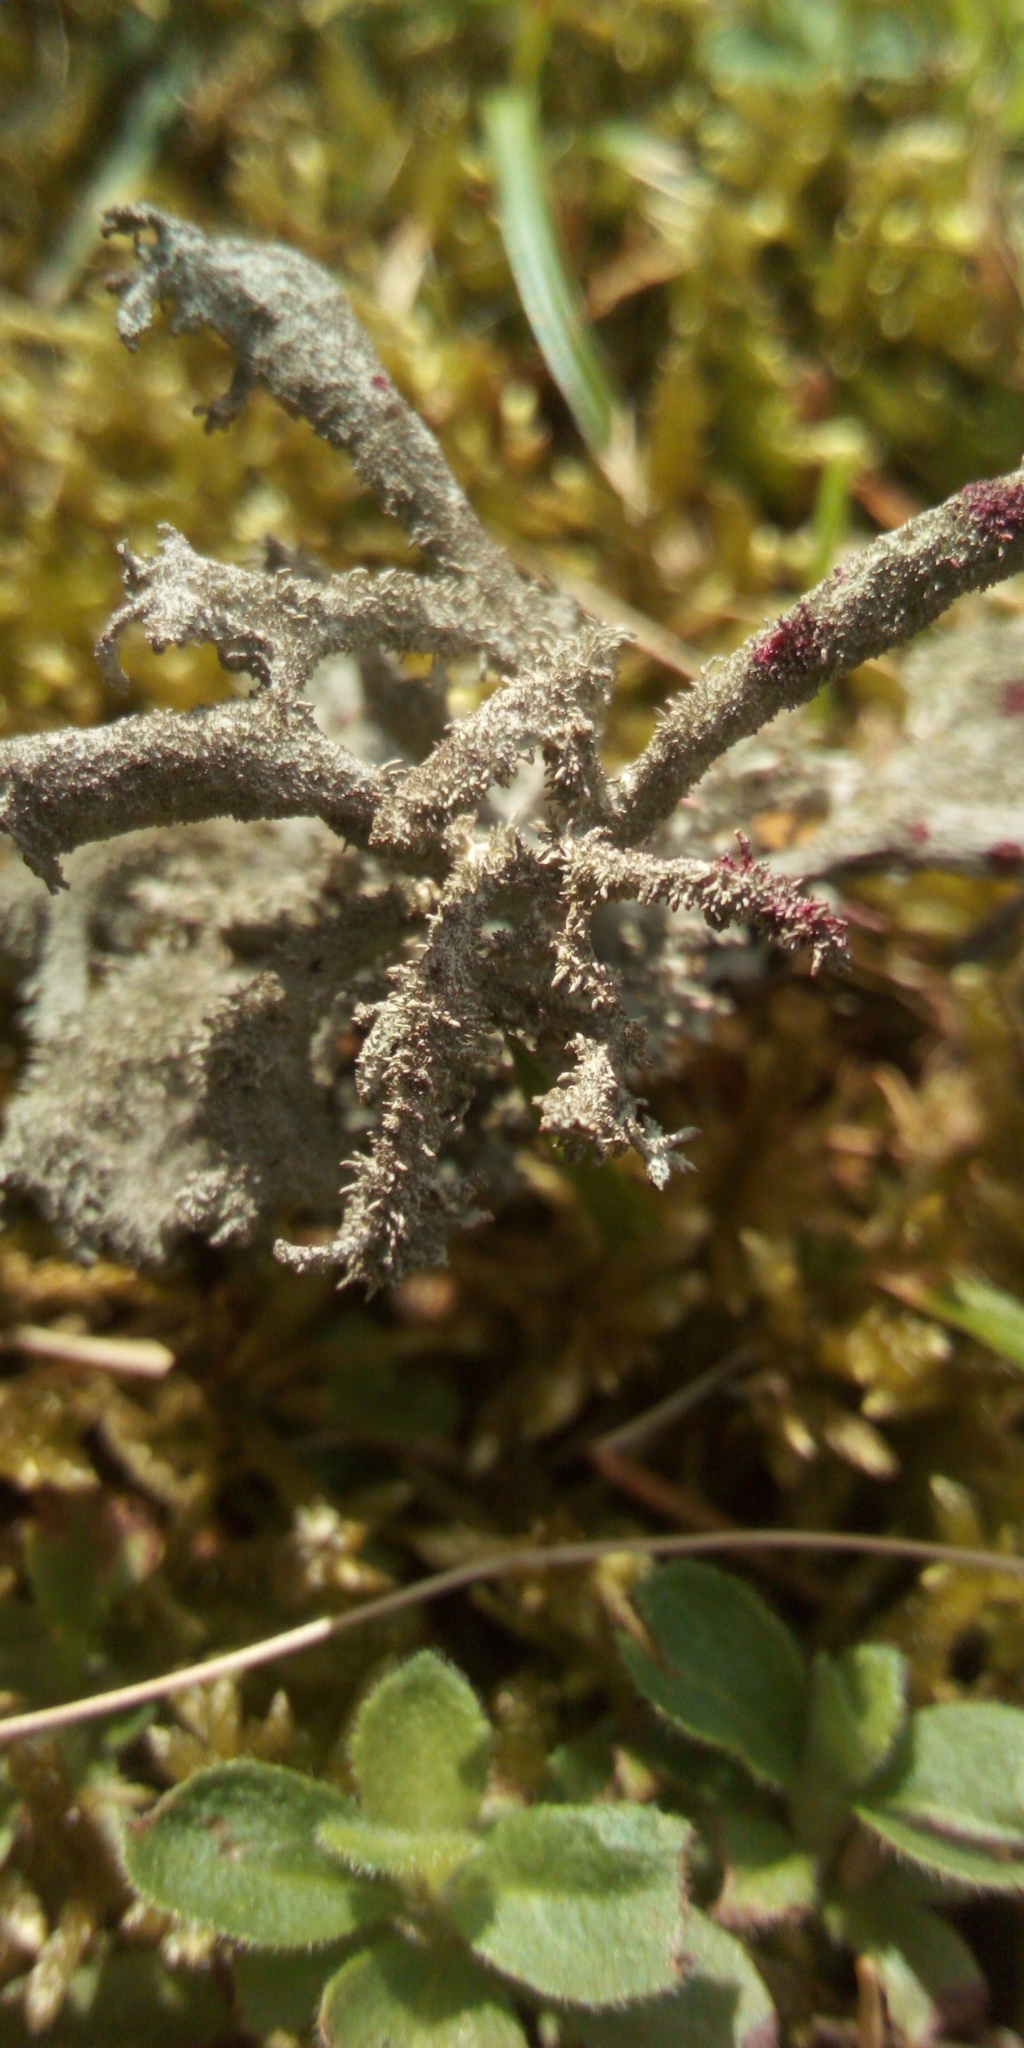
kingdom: Fungi
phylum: Ascomycota
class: Lecanoromycetes
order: Lecanorales
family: Parmeliaceae
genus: Pseudevernia
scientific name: Pseudevernia furfuracea
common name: Tree moss
